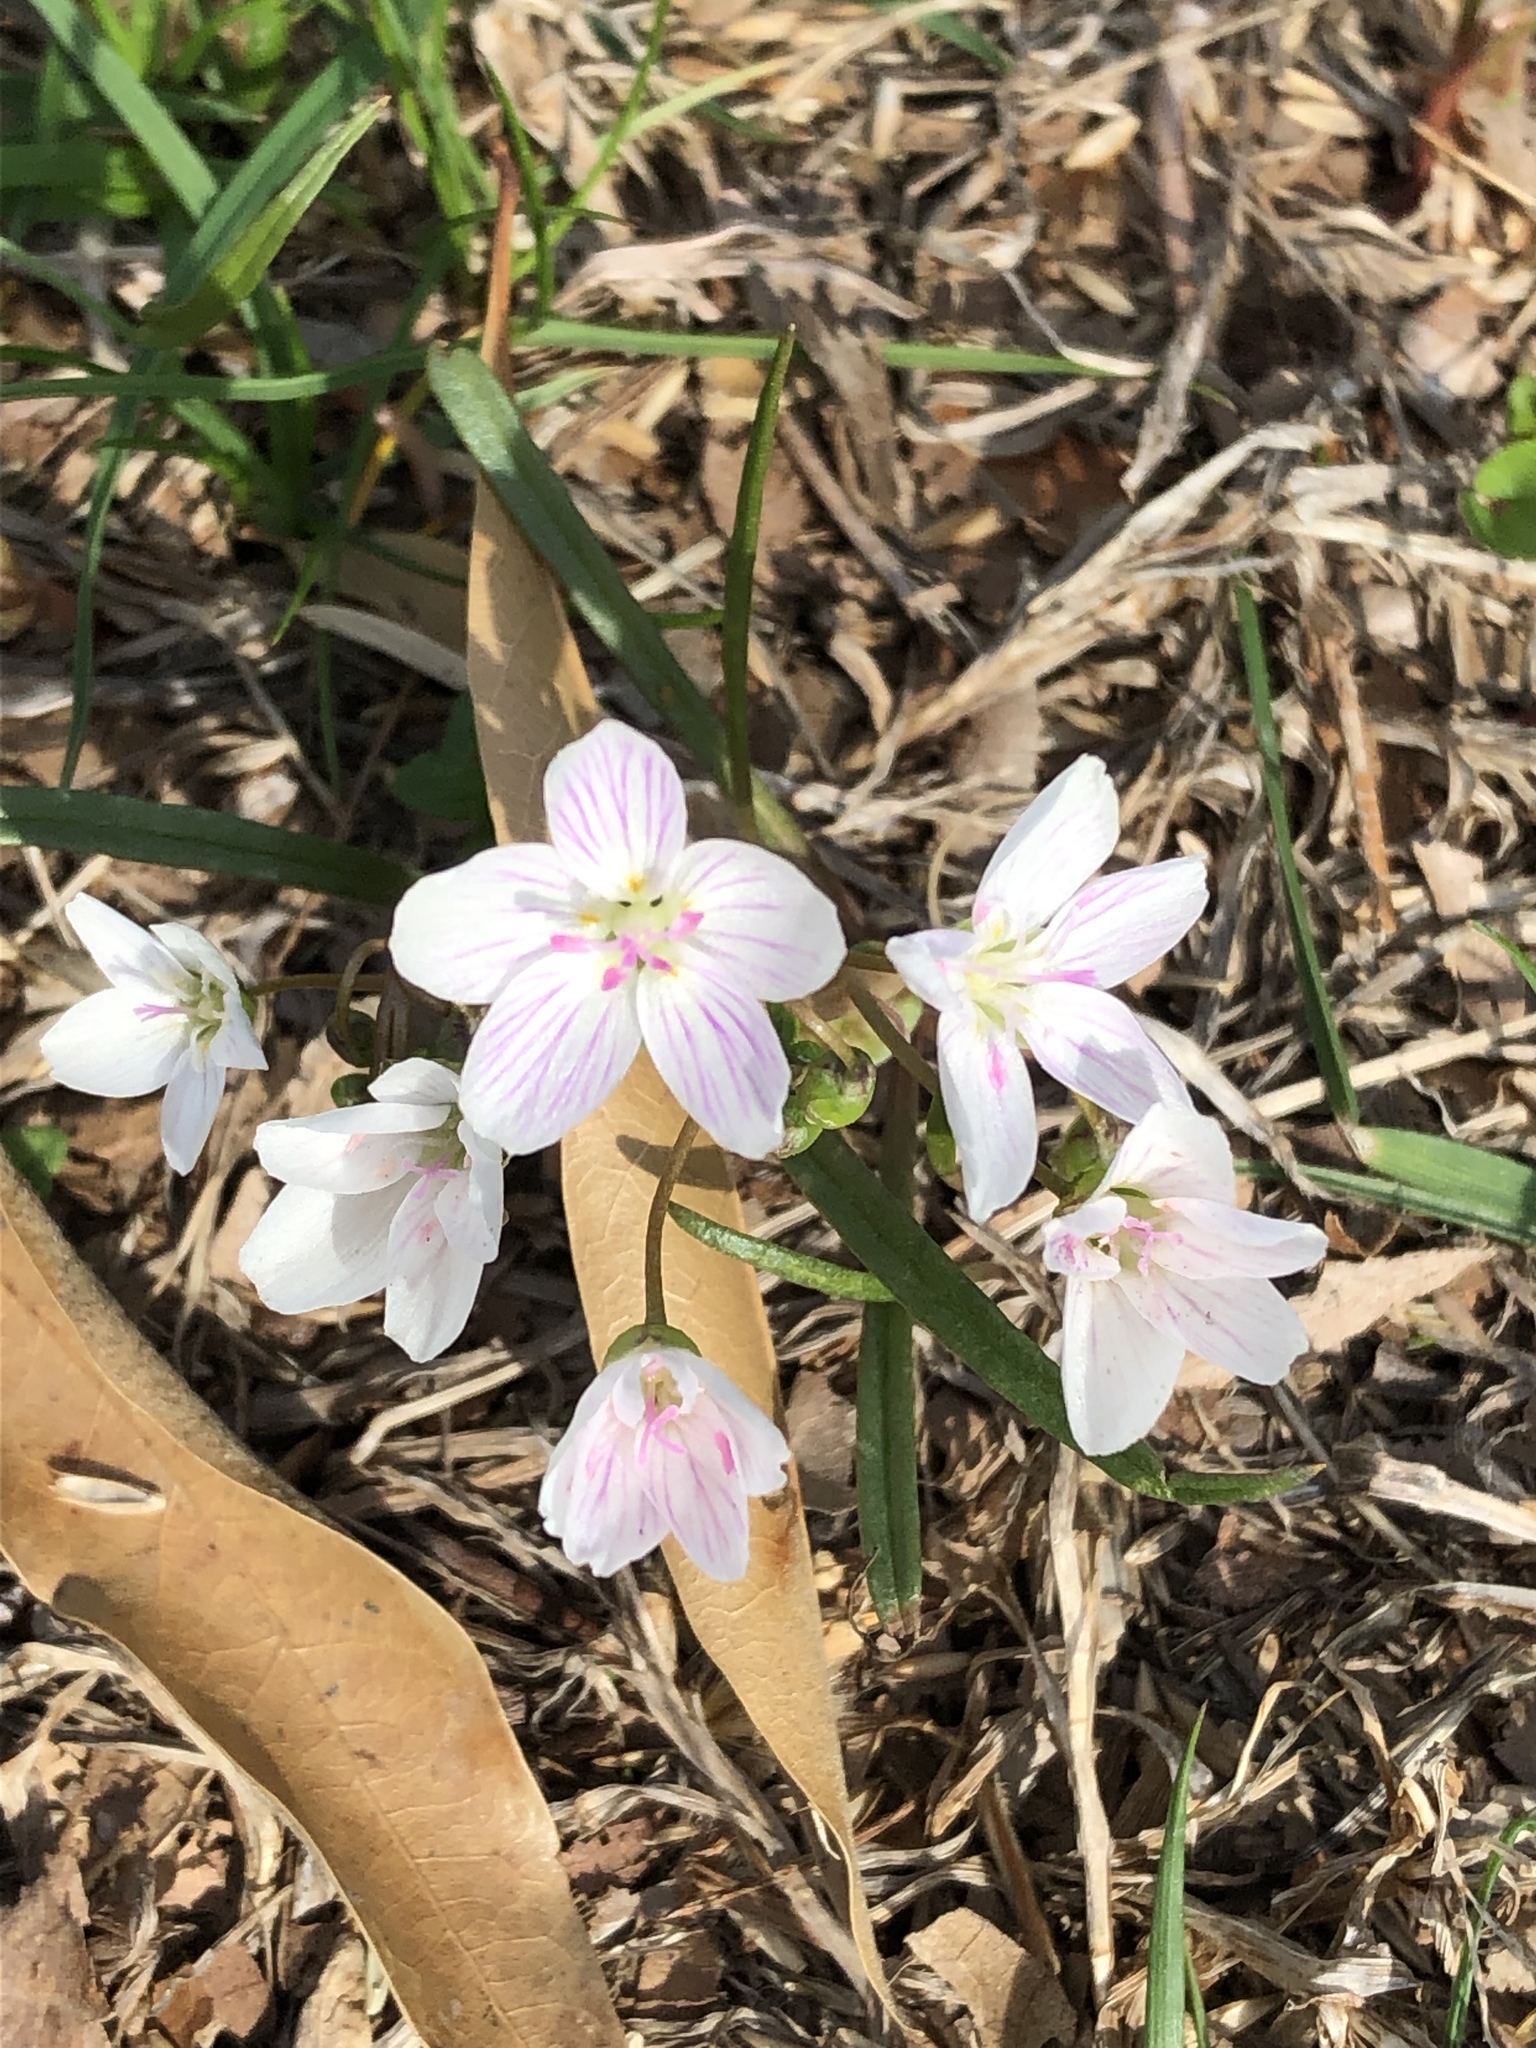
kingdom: Plantae
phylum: Tracheophyta
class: Magnoliopsida
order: Caryophyllales
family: Montiaceae
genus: Claytonia
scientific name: Claytonia virginica
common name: Virginia springbeauty
